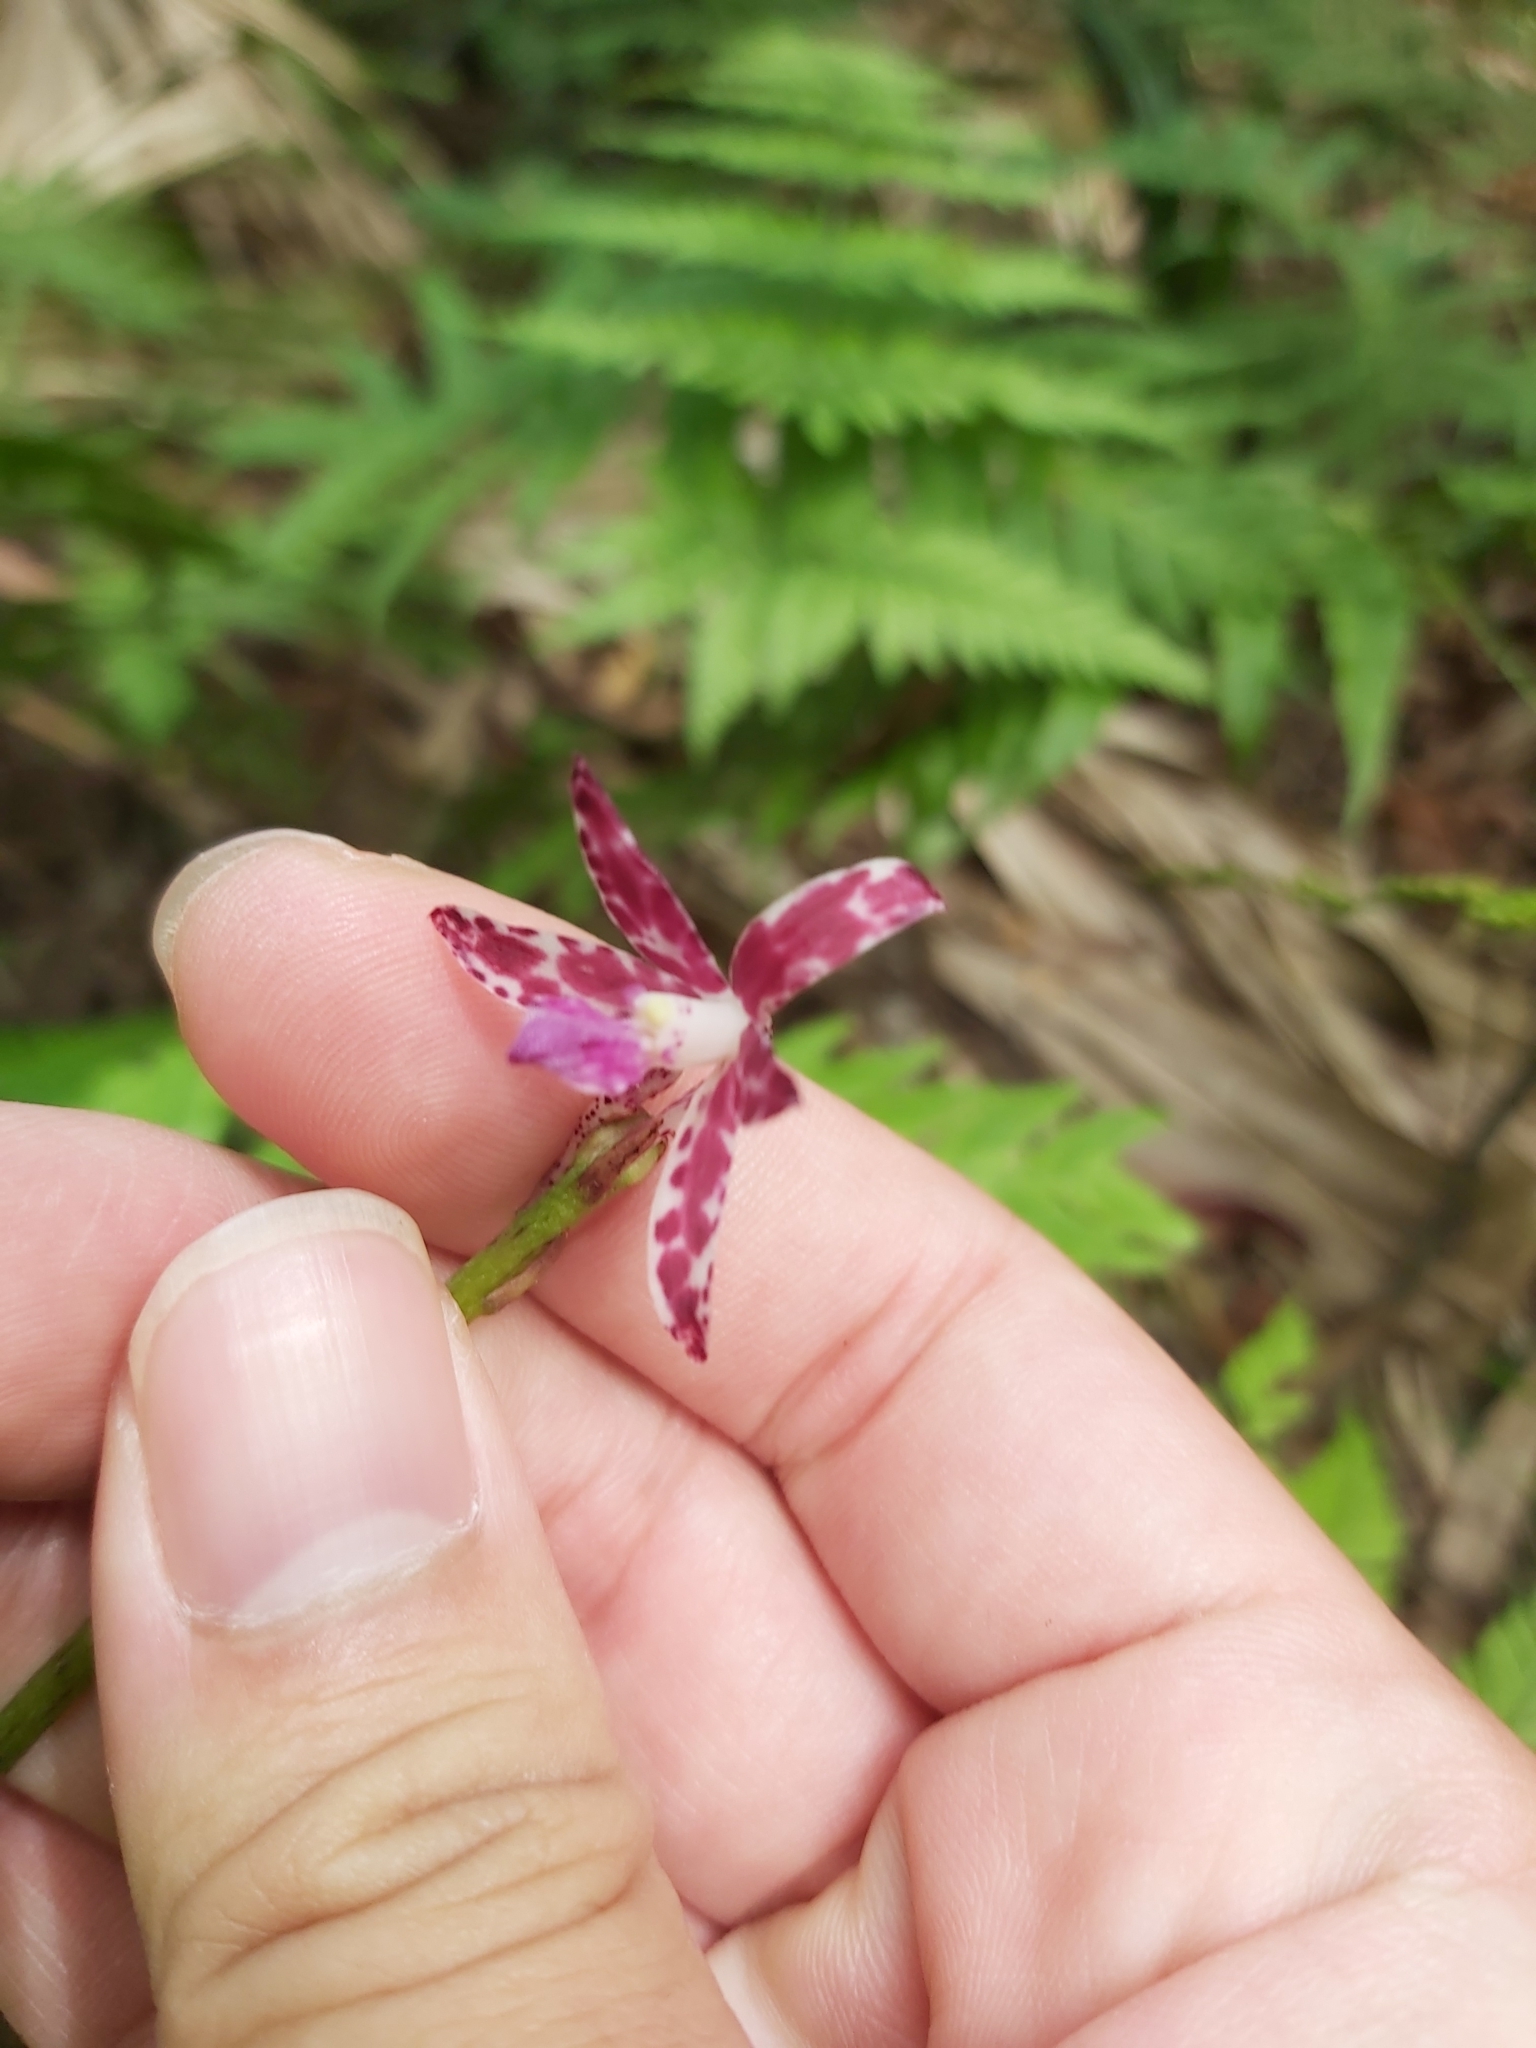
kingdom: Plantae
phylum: Tracheophyta
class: Liliopsida
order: Asparagales
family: Orchidaceae
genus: Dipodium
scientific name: Dipodium variegatum
